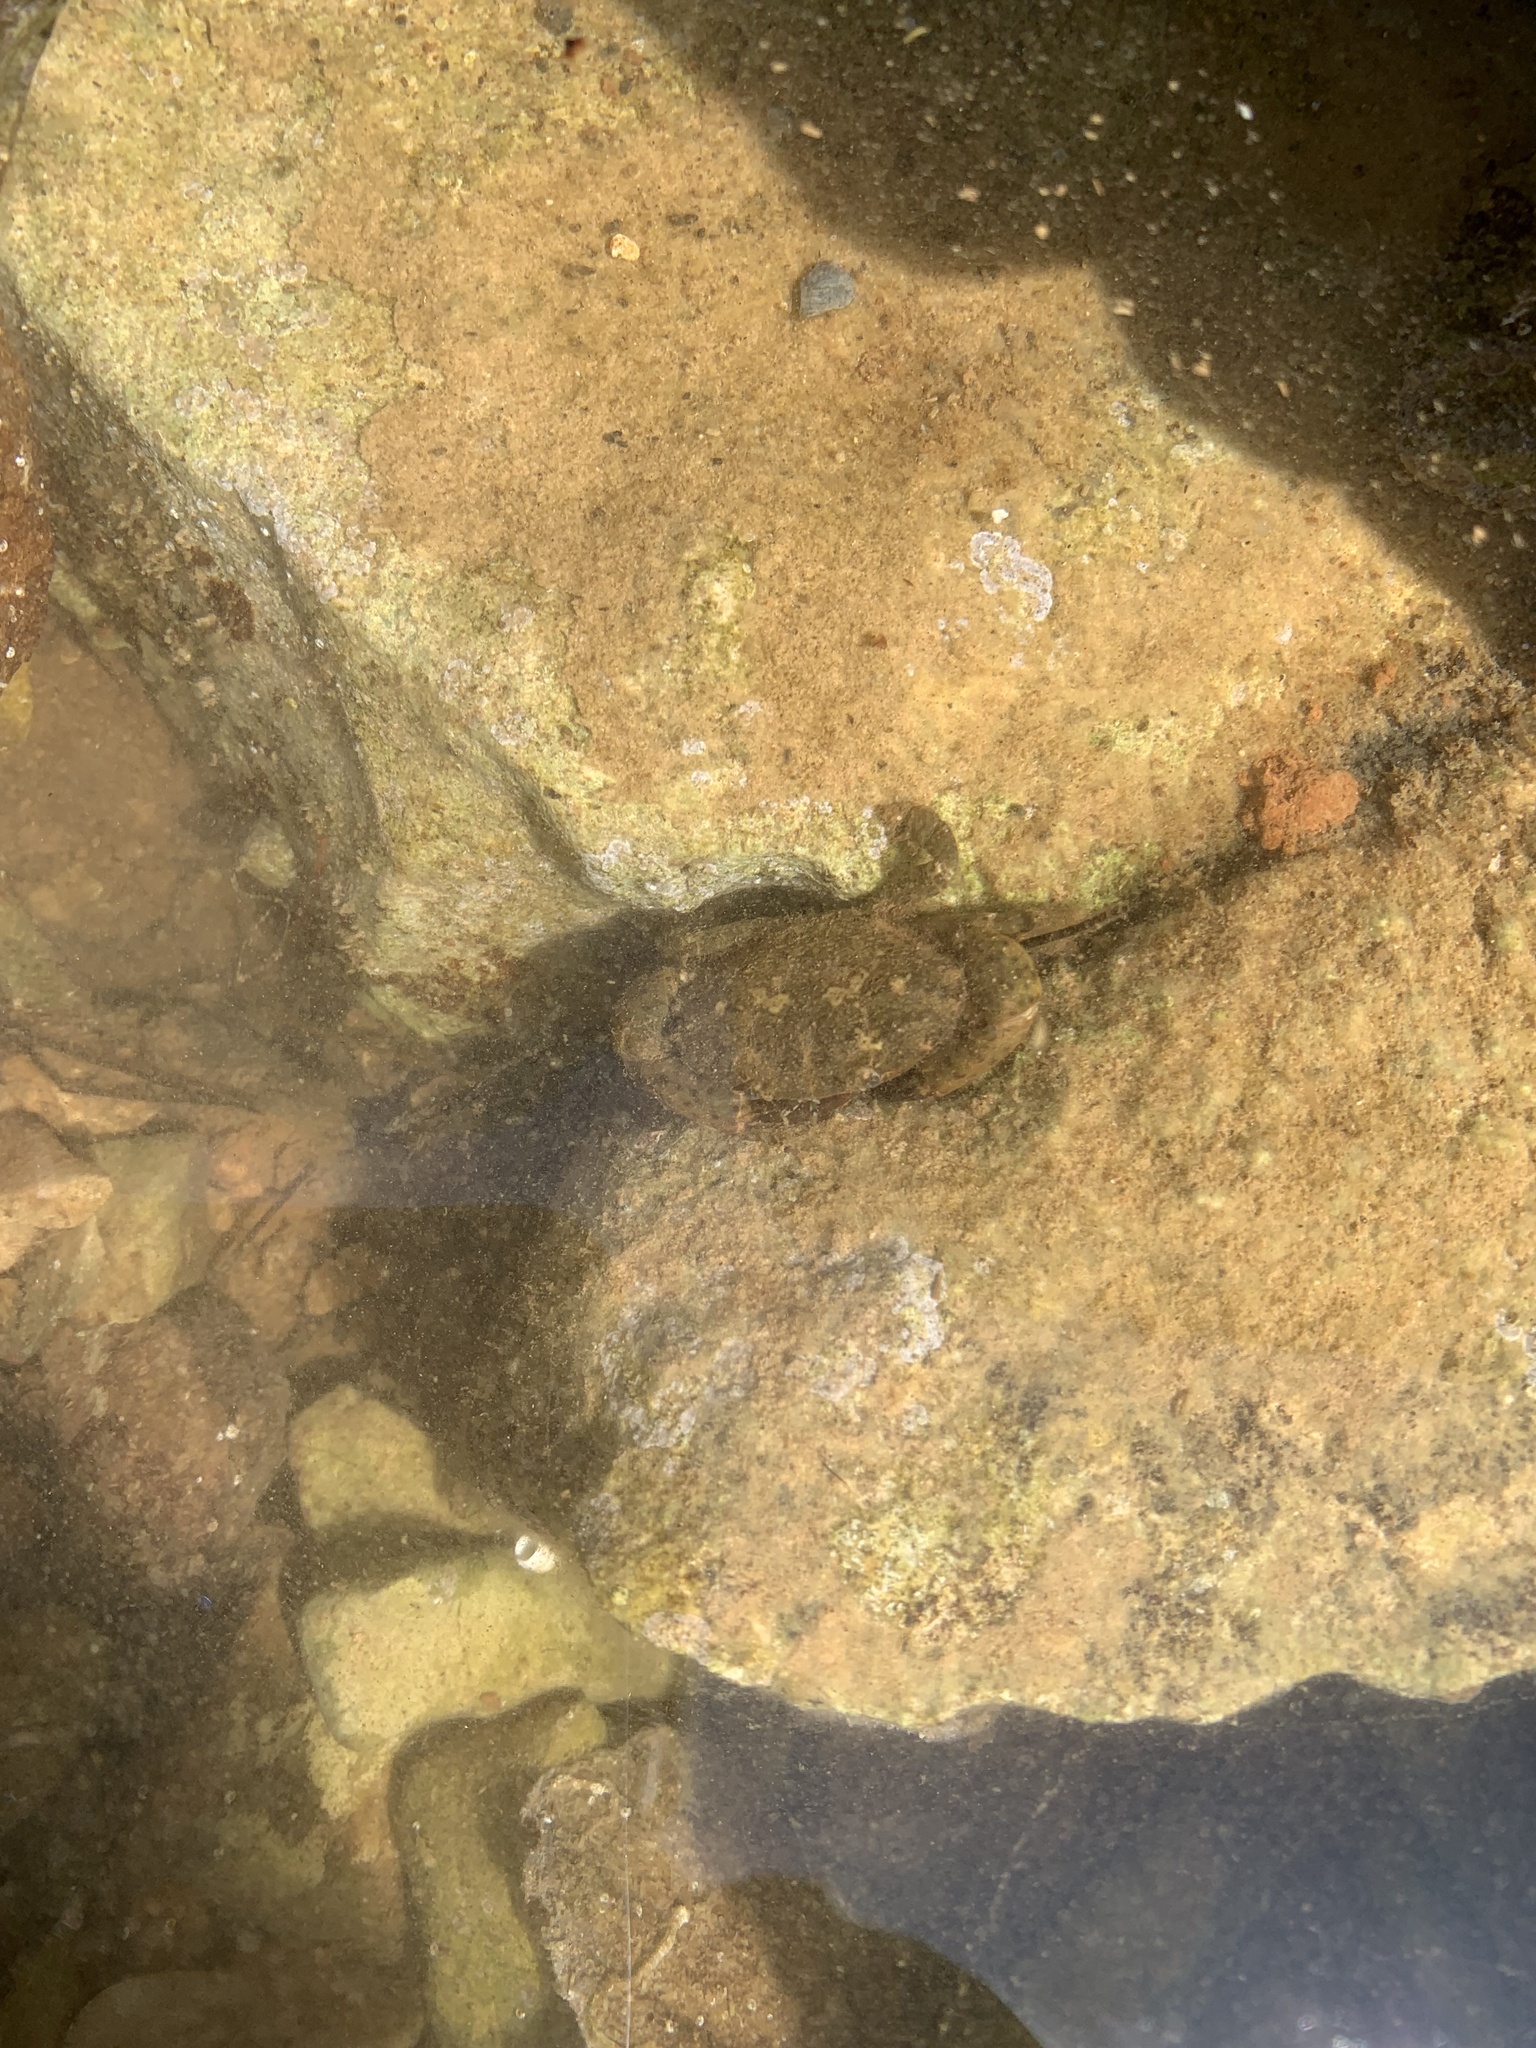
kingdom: Animalia
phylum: Arthropoda
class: Malacostraca
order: Decapoda
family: Xanthidae
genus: Xantho
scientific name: Xantho poressa
